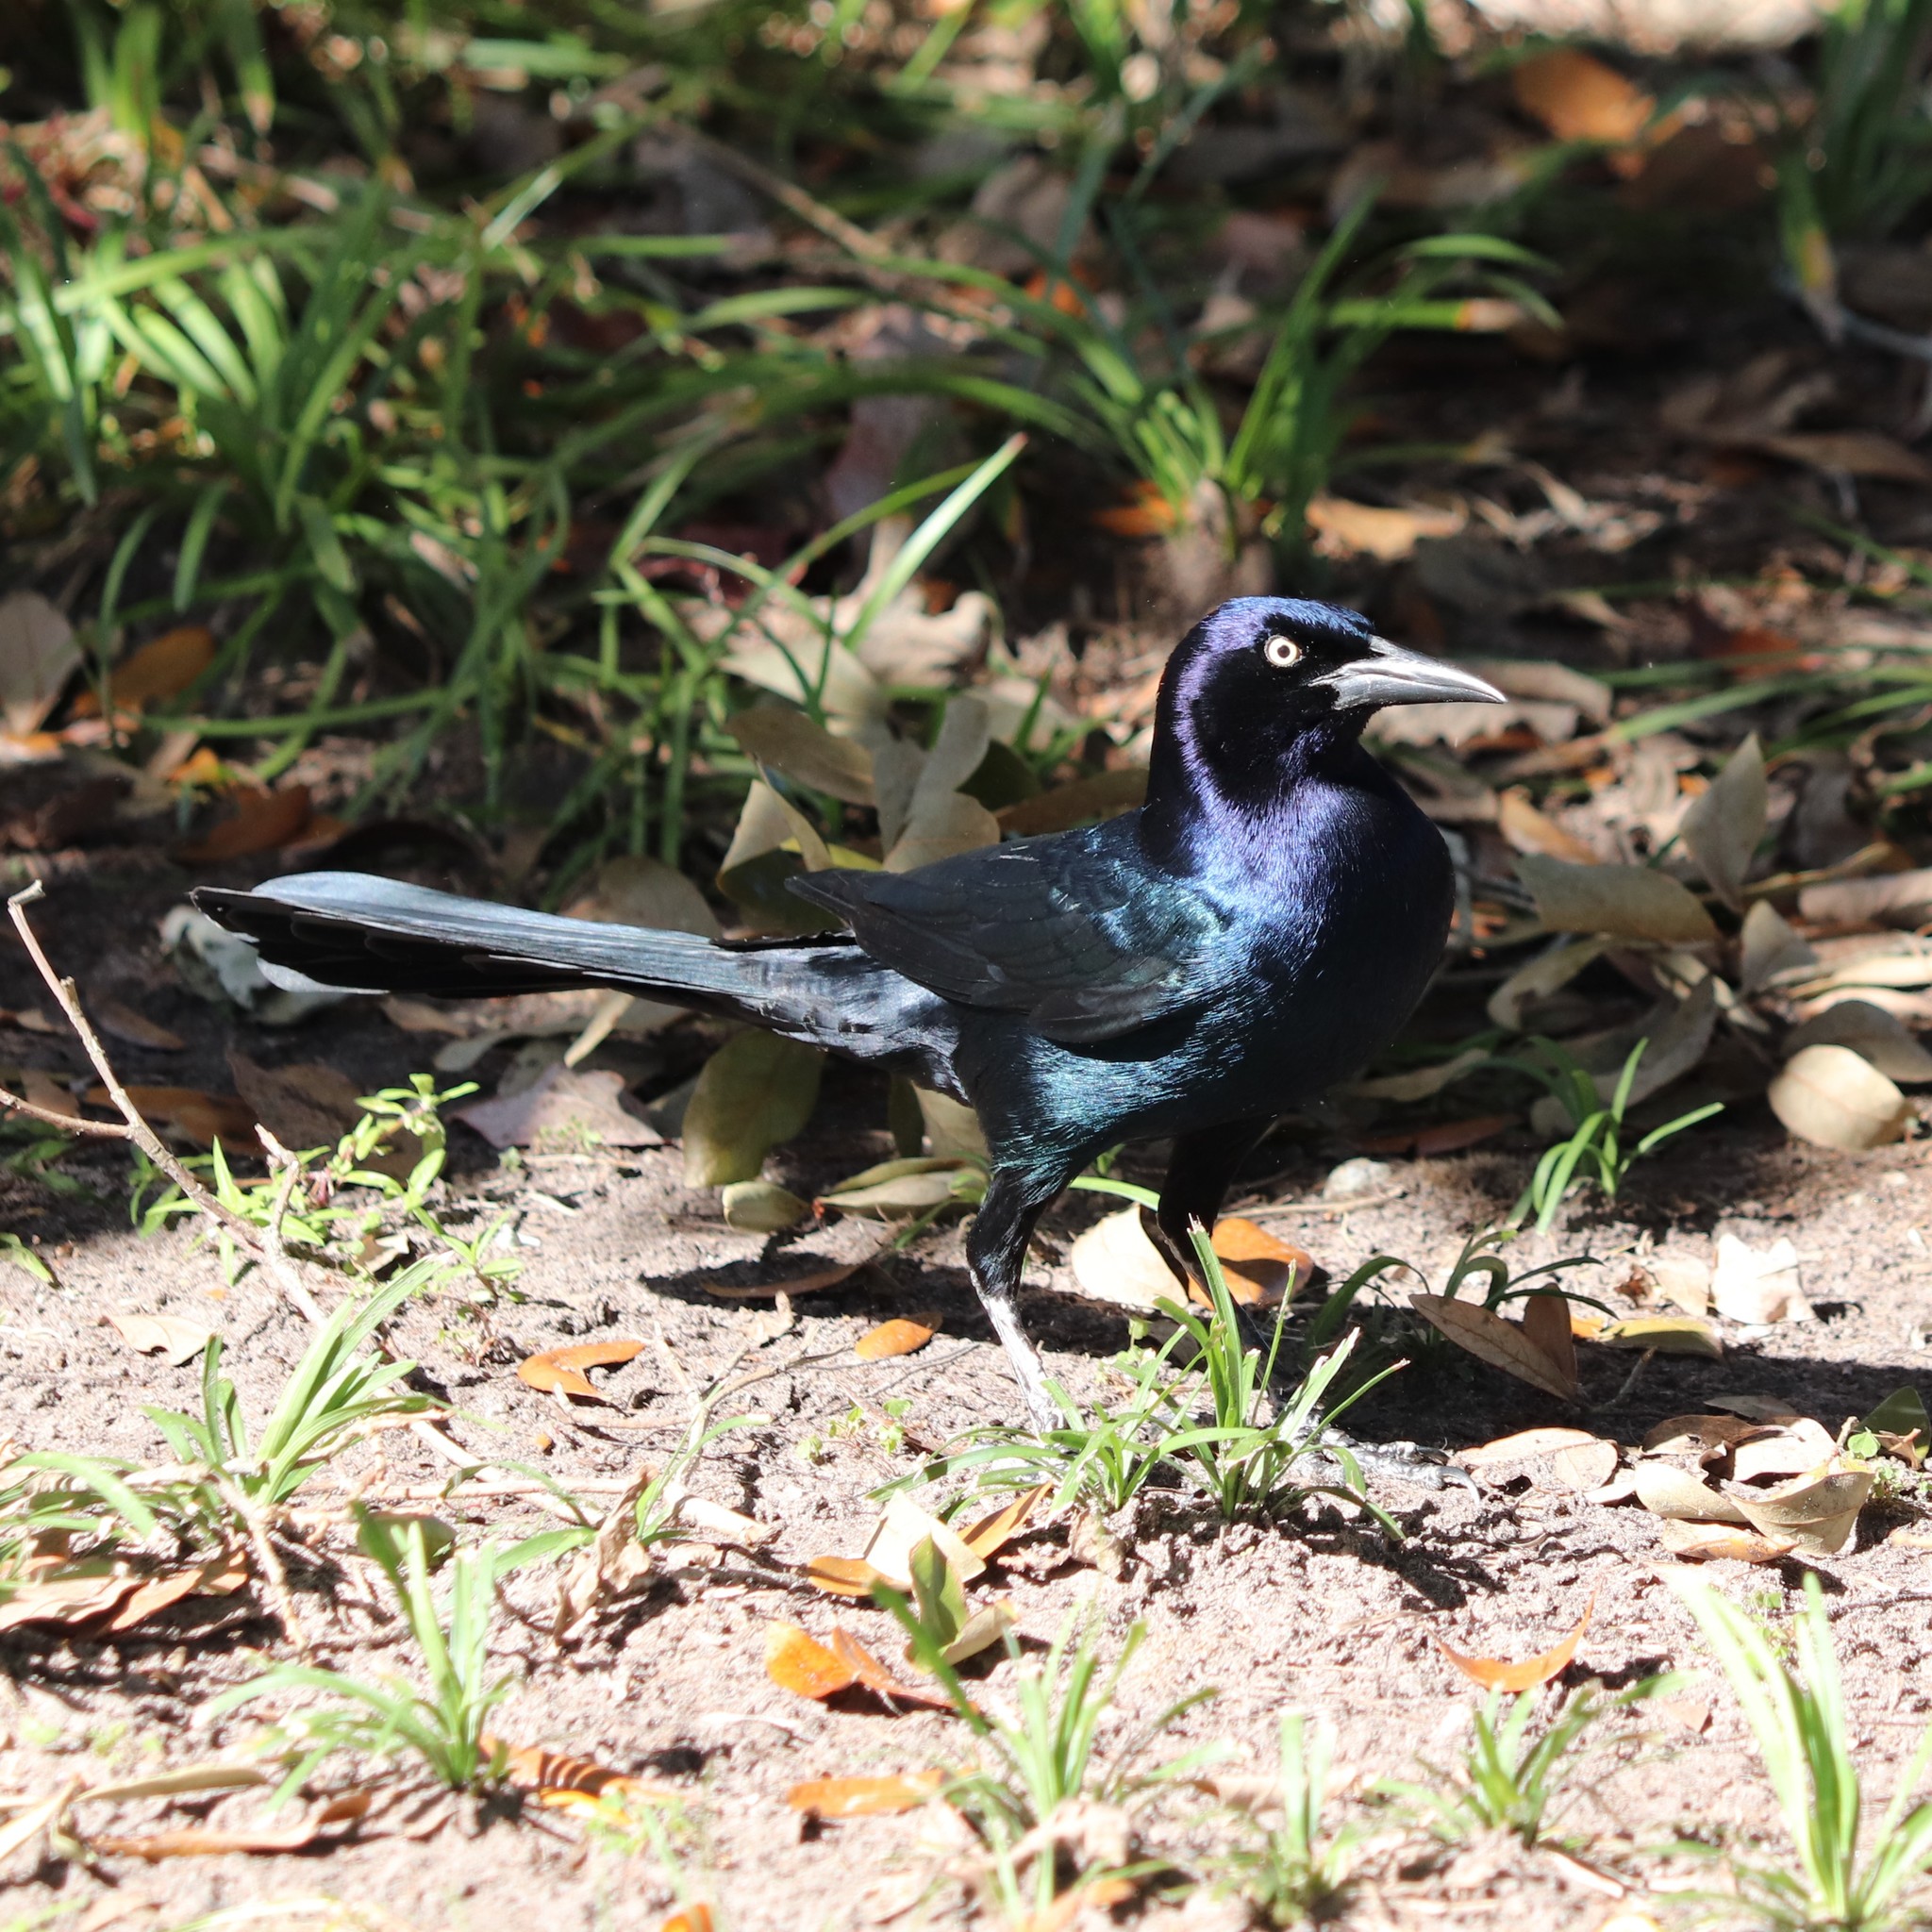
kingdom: Animalia
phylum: Chordata
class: Aves
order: Passeriformes
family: Icteridae
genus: Quiscalus
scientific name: Quiscalus major
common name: Boat-tailed grackle
